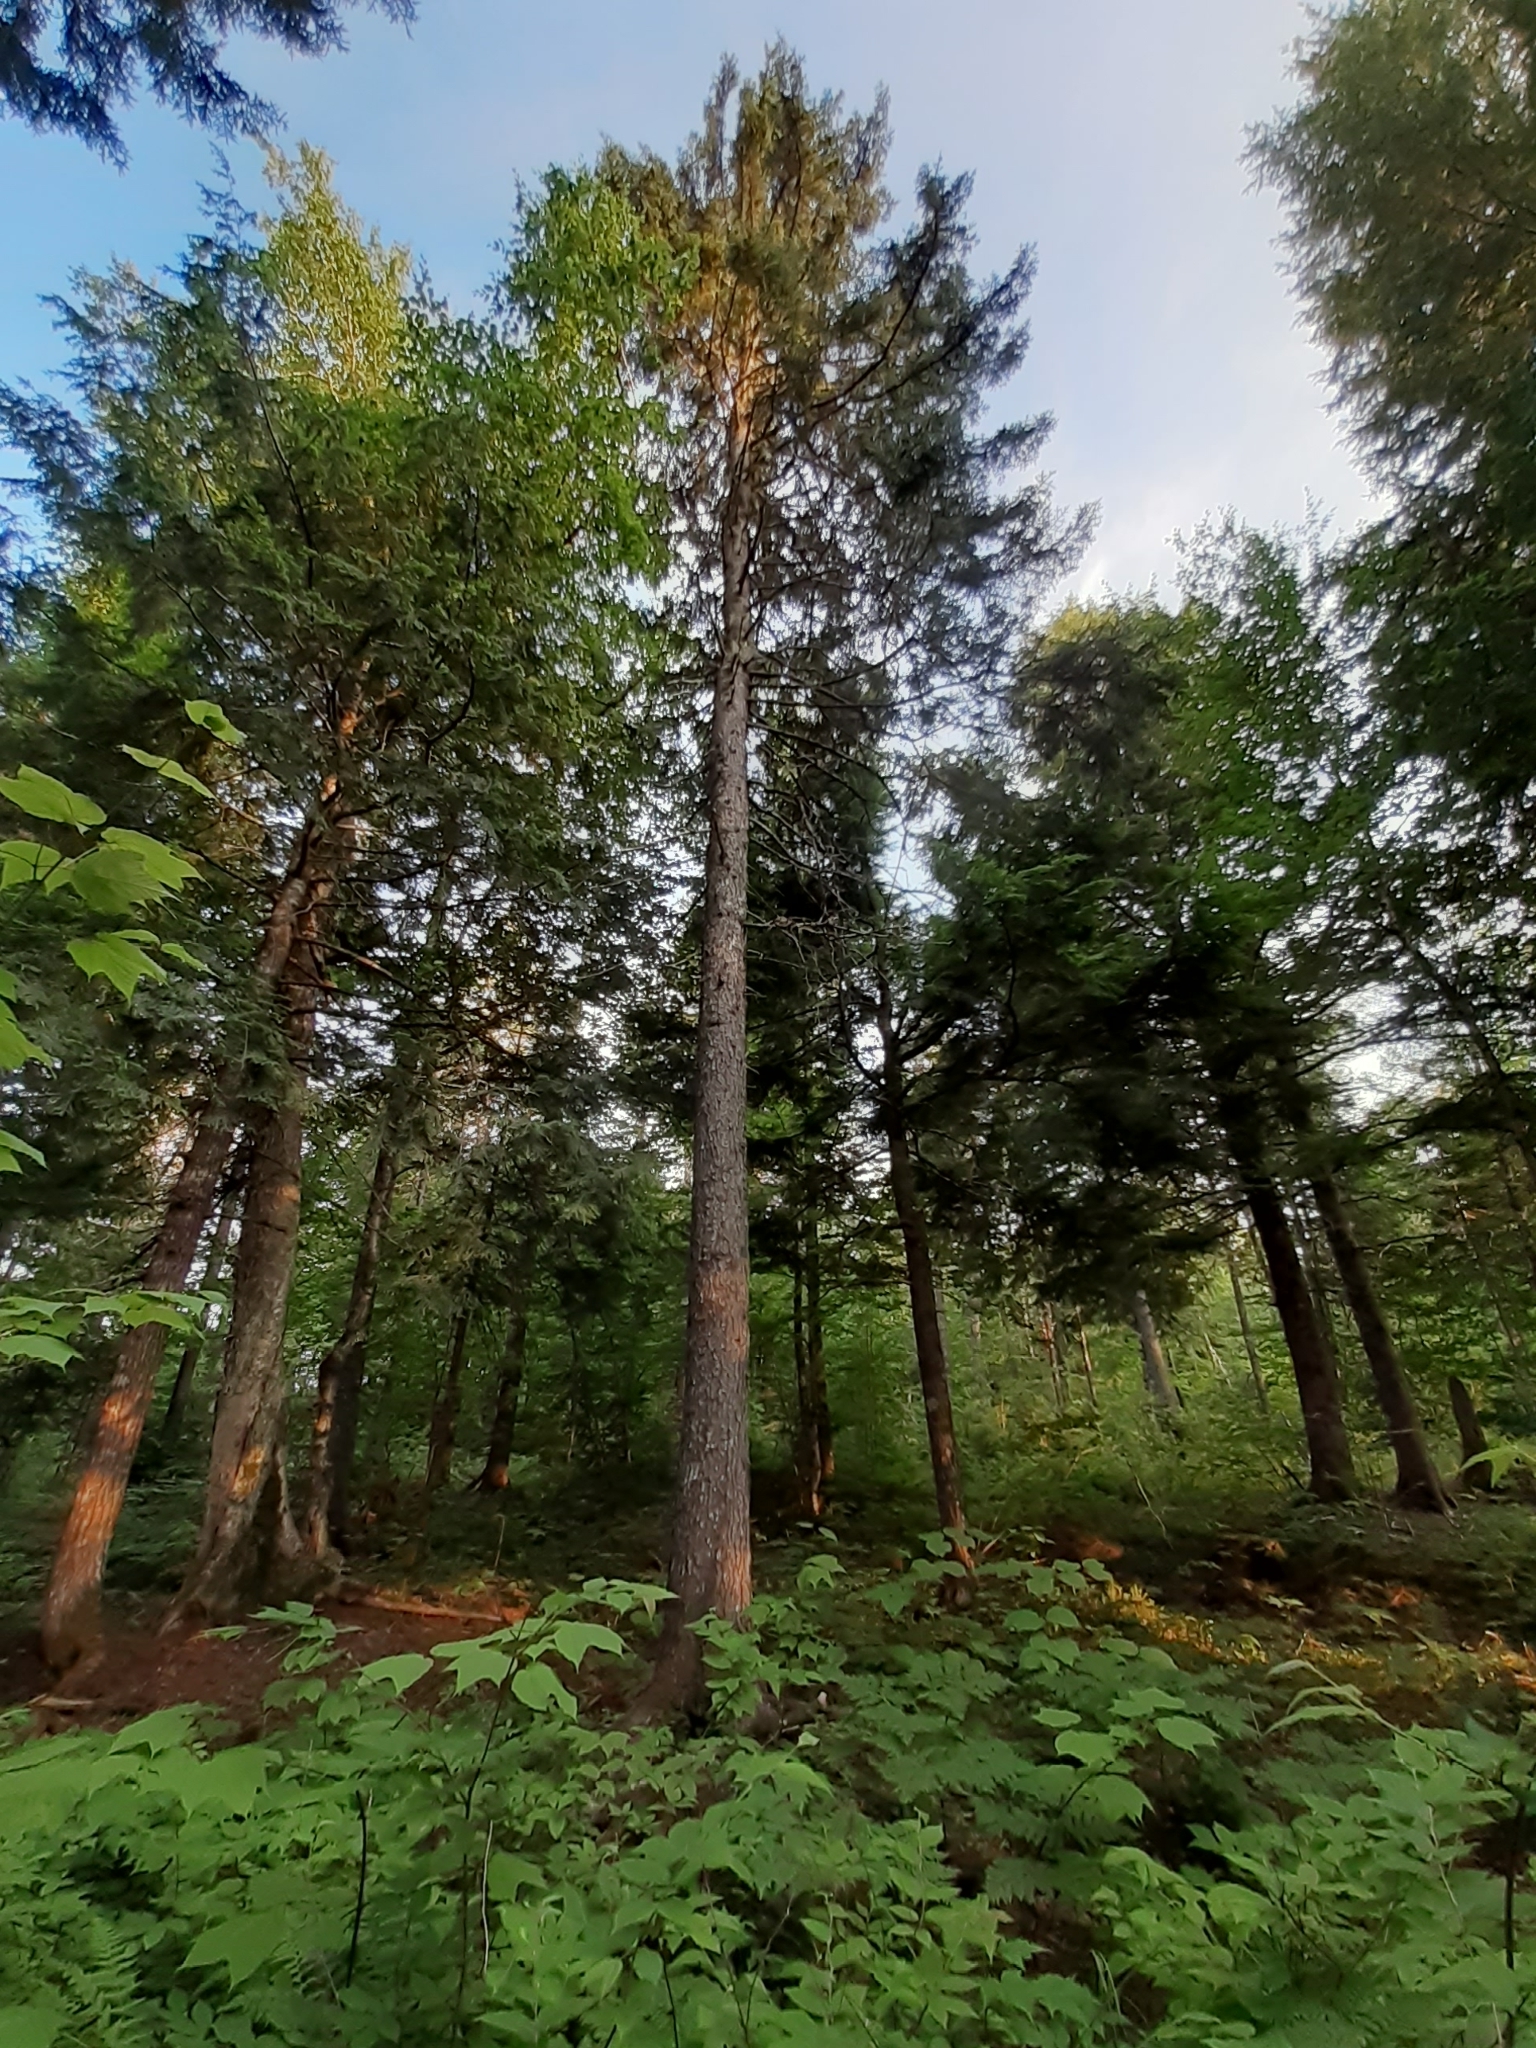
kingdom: Plantae
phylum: Tracheophyta
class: Pinopsida
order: Pinales
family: Pinaceae
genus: Picea
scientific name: Picea rubens
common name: Red spruce
